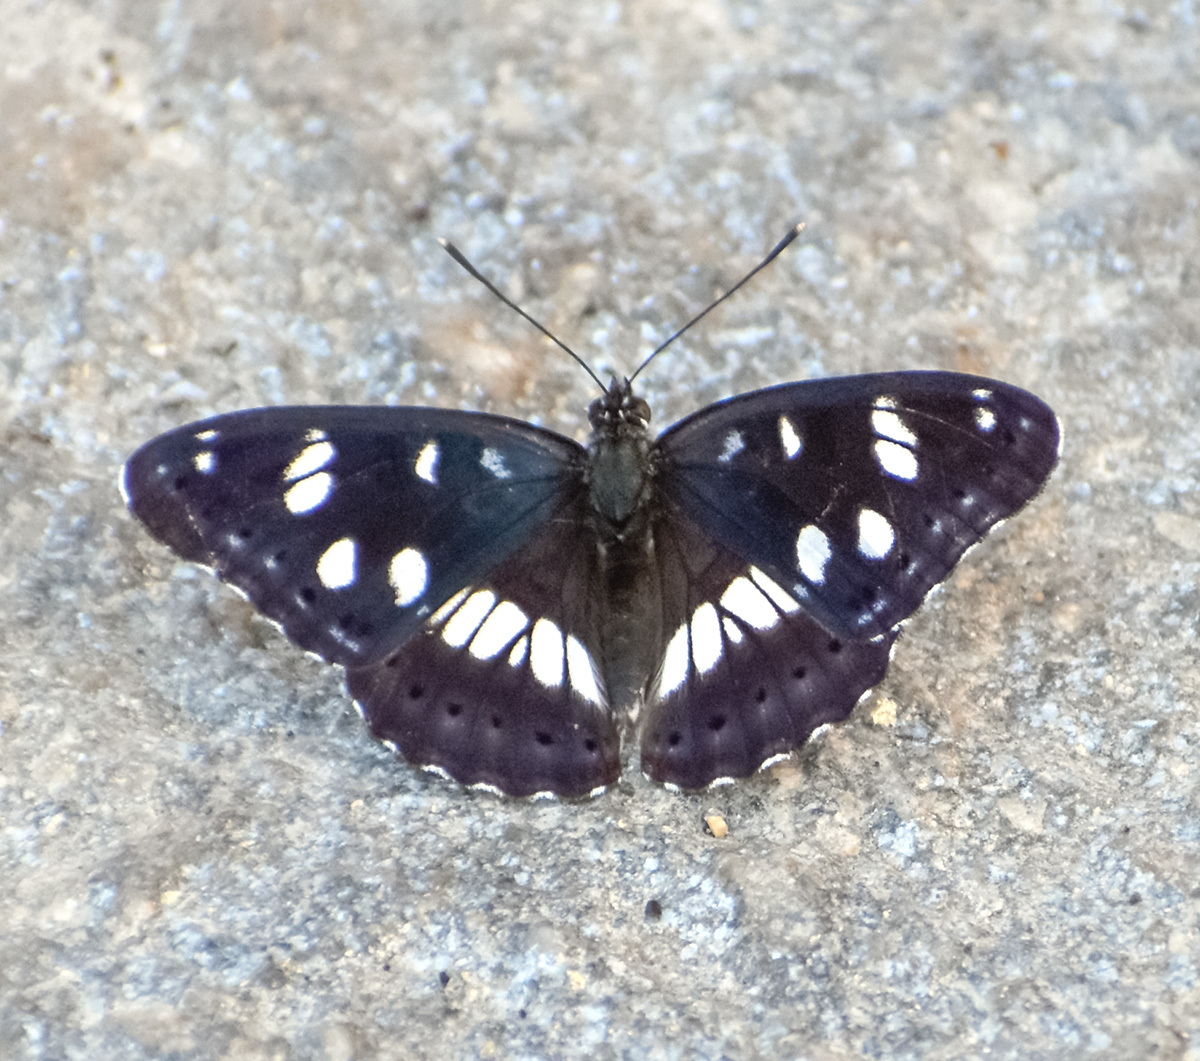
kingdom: Animalia
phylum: Arthropoda
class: Insecta
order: Lepidoptera
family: Nymphalidae
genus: Limenitis
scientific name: Limenitis reducta
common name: Southern white admiral
